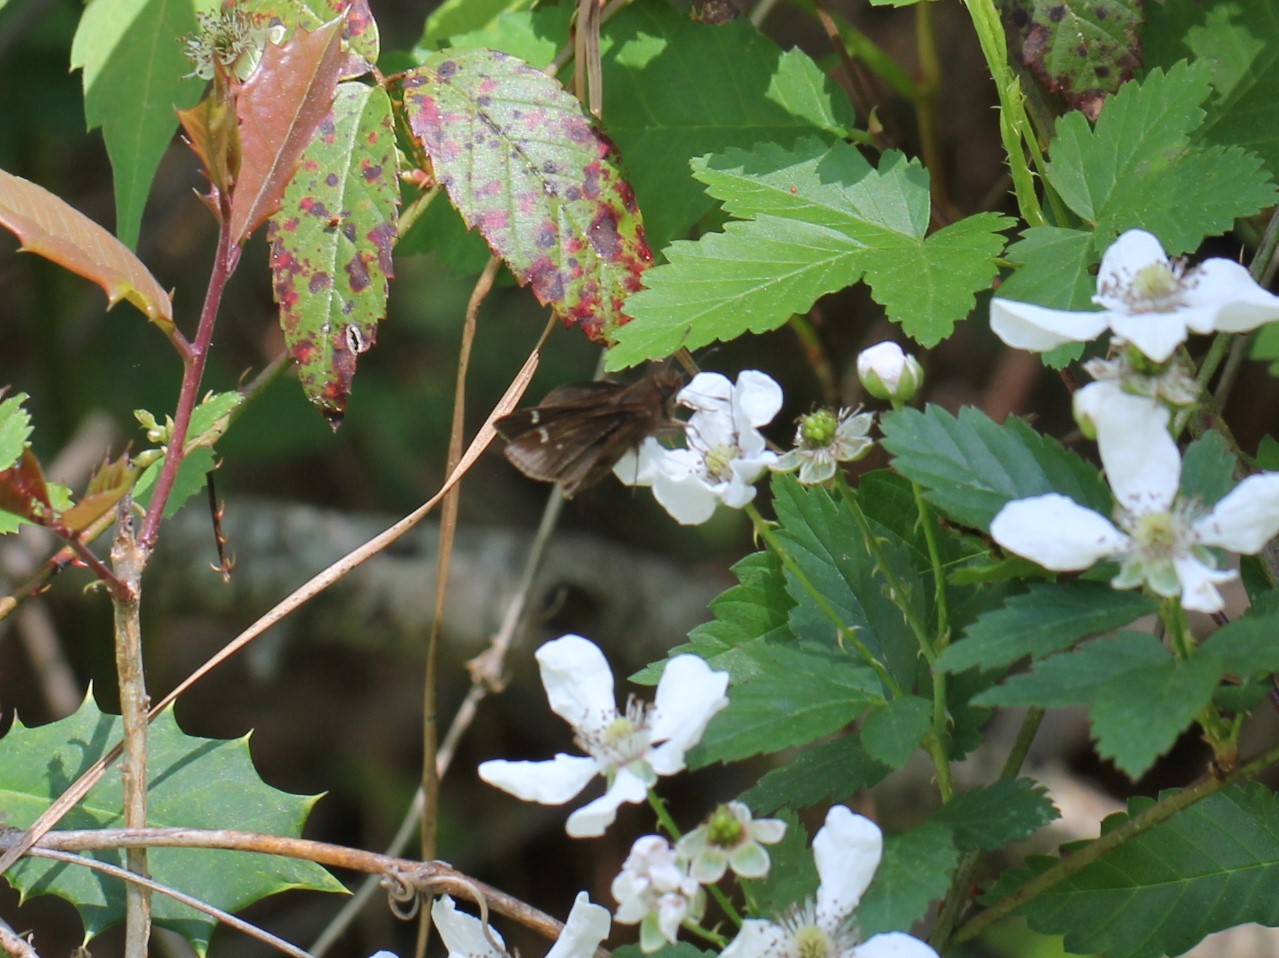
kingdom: Animalia
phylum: Arthropoda
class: Insecta
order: Lepidoptera
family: Hesperiidae
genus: Lerema
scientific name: Lerema accius
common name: Clouded skipper
